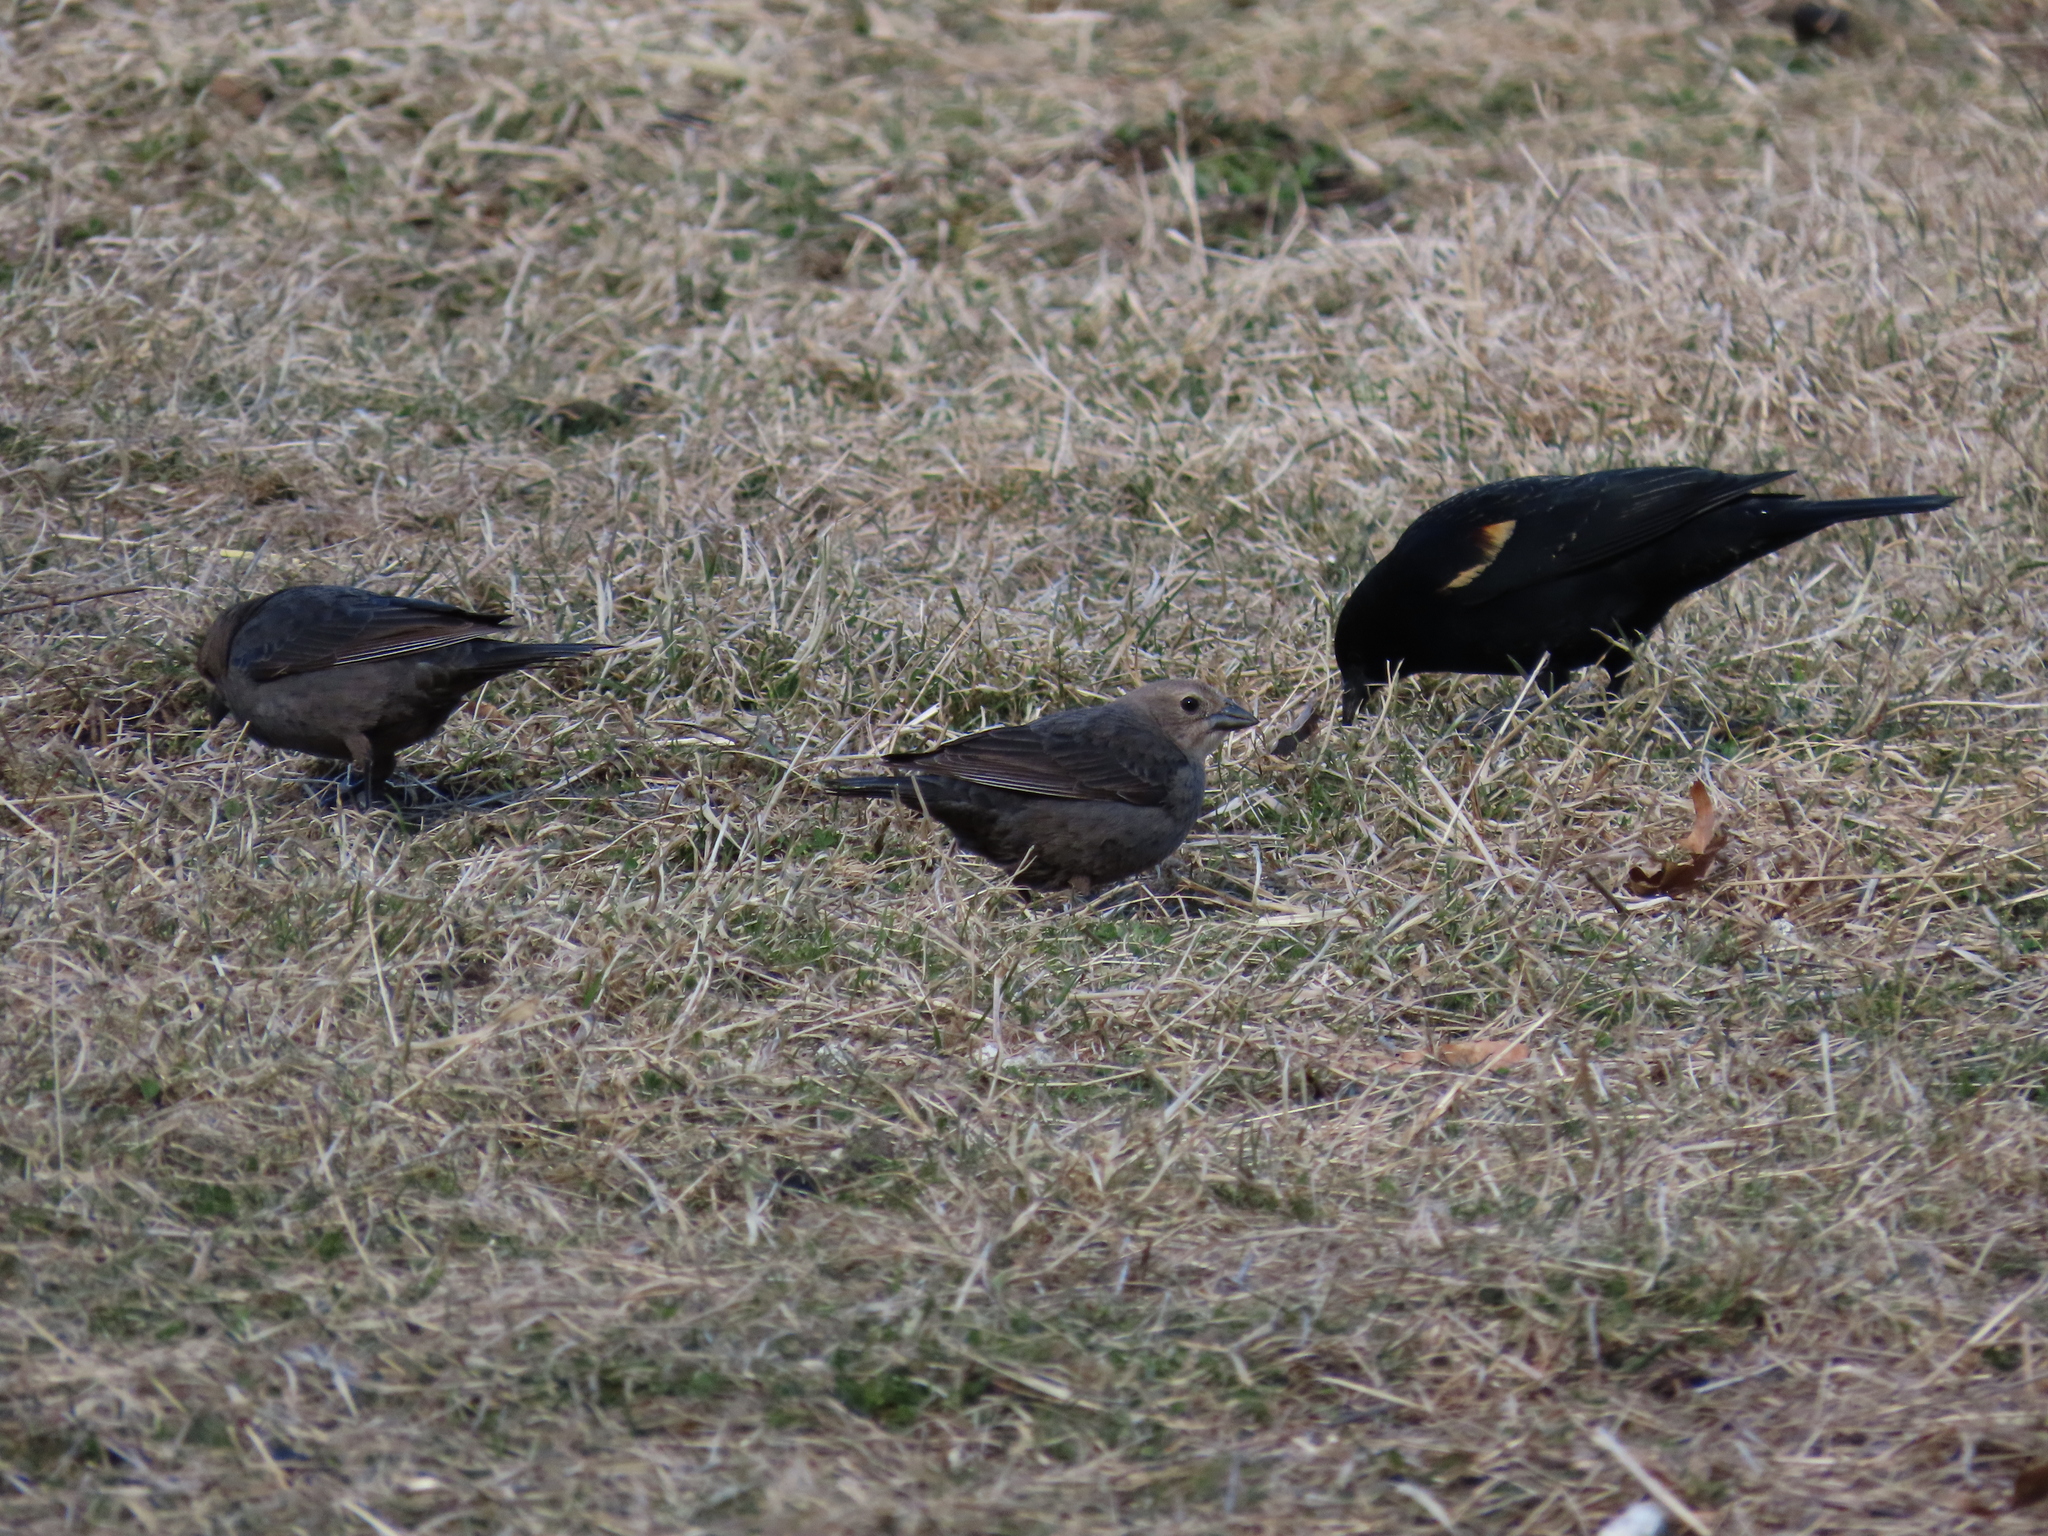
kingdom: Animalia
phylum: Chordata
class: Aves
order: Passeriformes
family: Icteridae
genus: Agelaius
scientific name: Agelaius phoeniceus
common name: Red-winged blackbird
